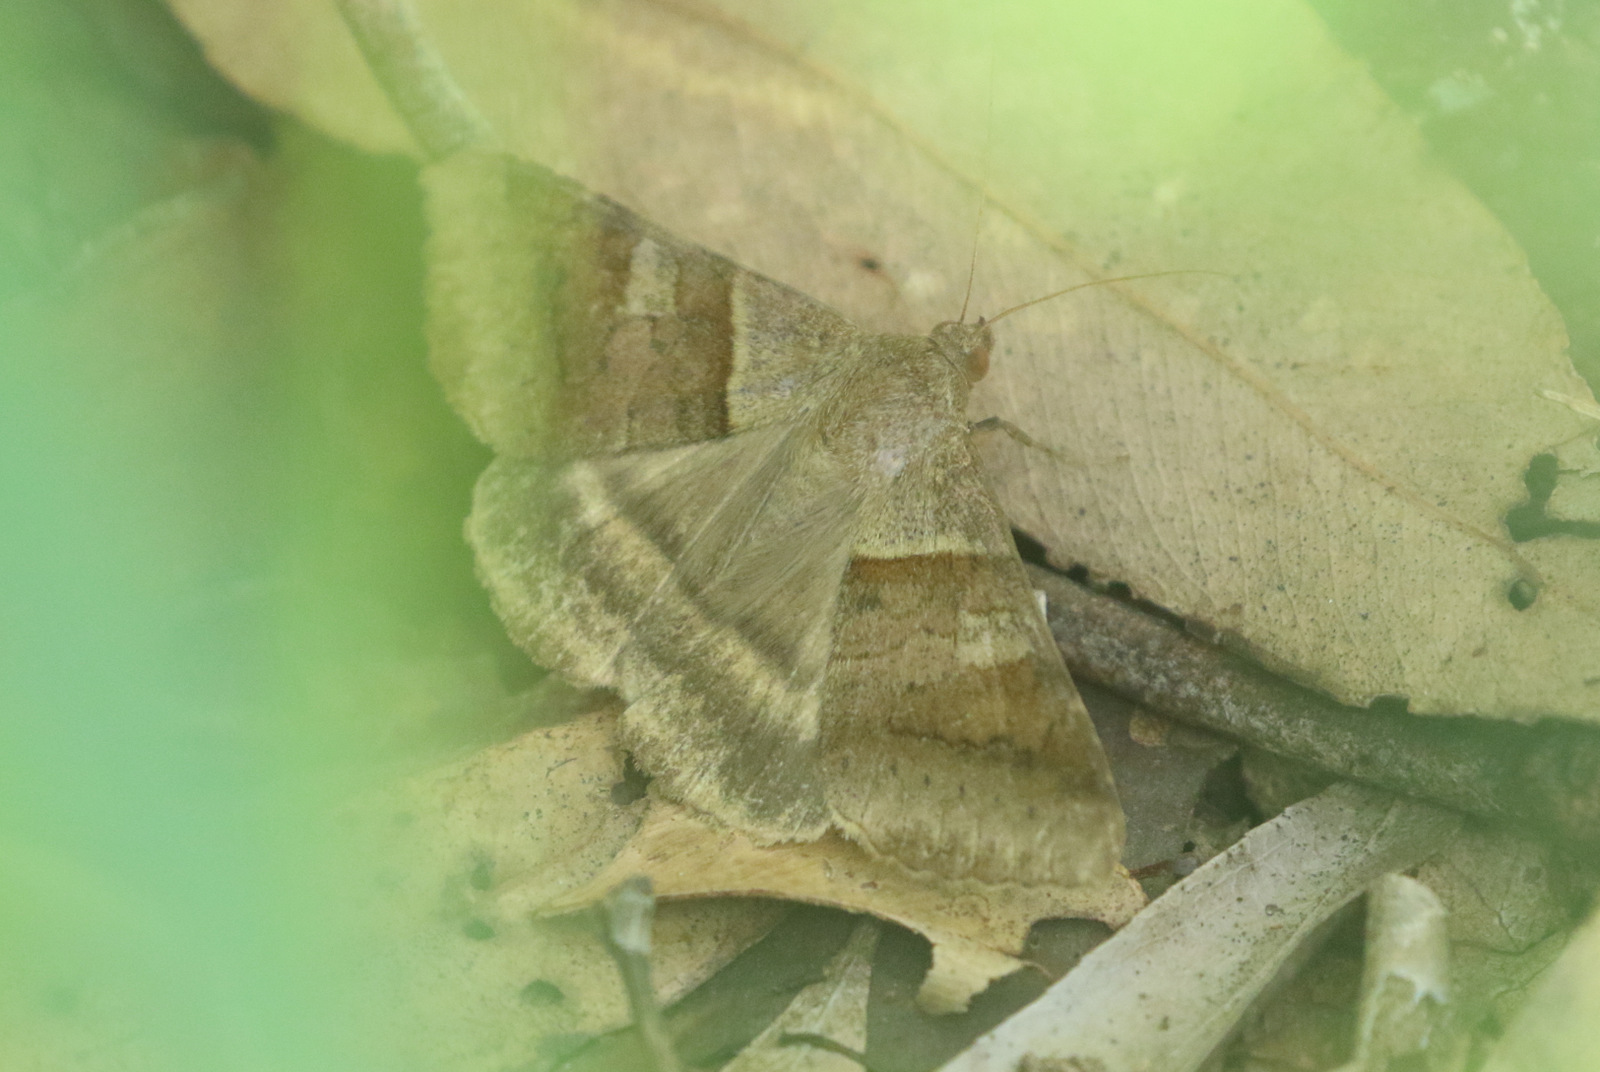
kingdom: Animalia
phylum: Arthropoda
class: Insecta
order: Lepidoptera
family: Erebidae
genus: Mocis
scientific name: Mocis trifasciata
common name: Triple-barred
